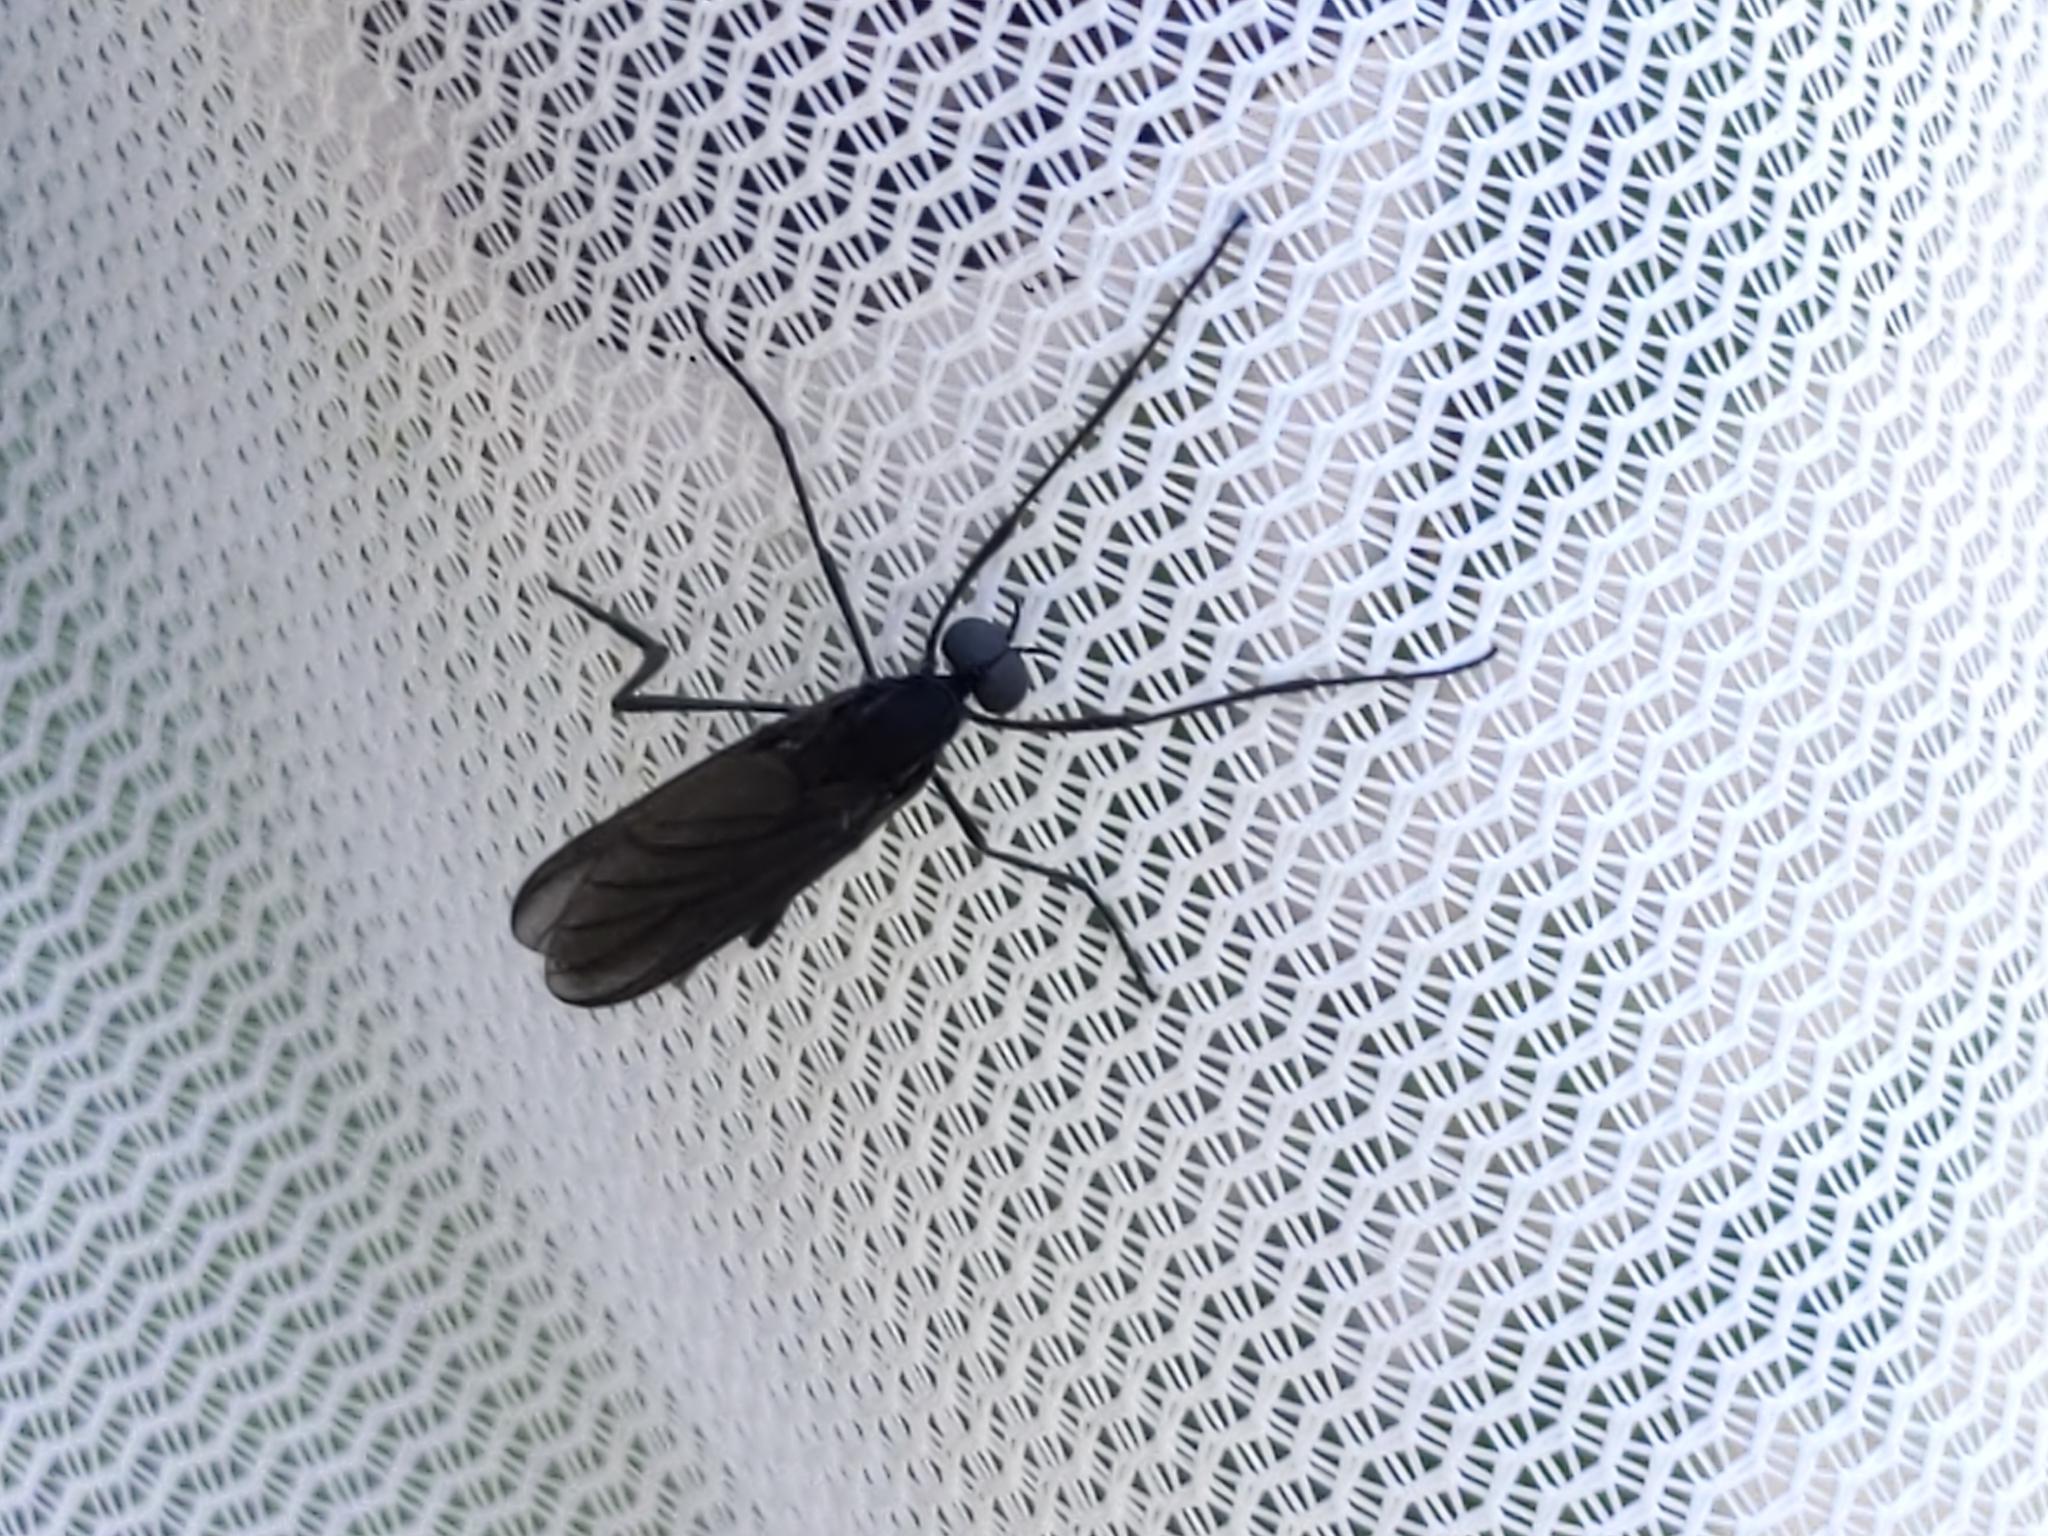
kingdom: Animalia
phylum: Arthropoda
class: Insecta
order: Diptera
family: Bibionidae
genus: Penthetria
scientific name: Penthetria heteroptera
